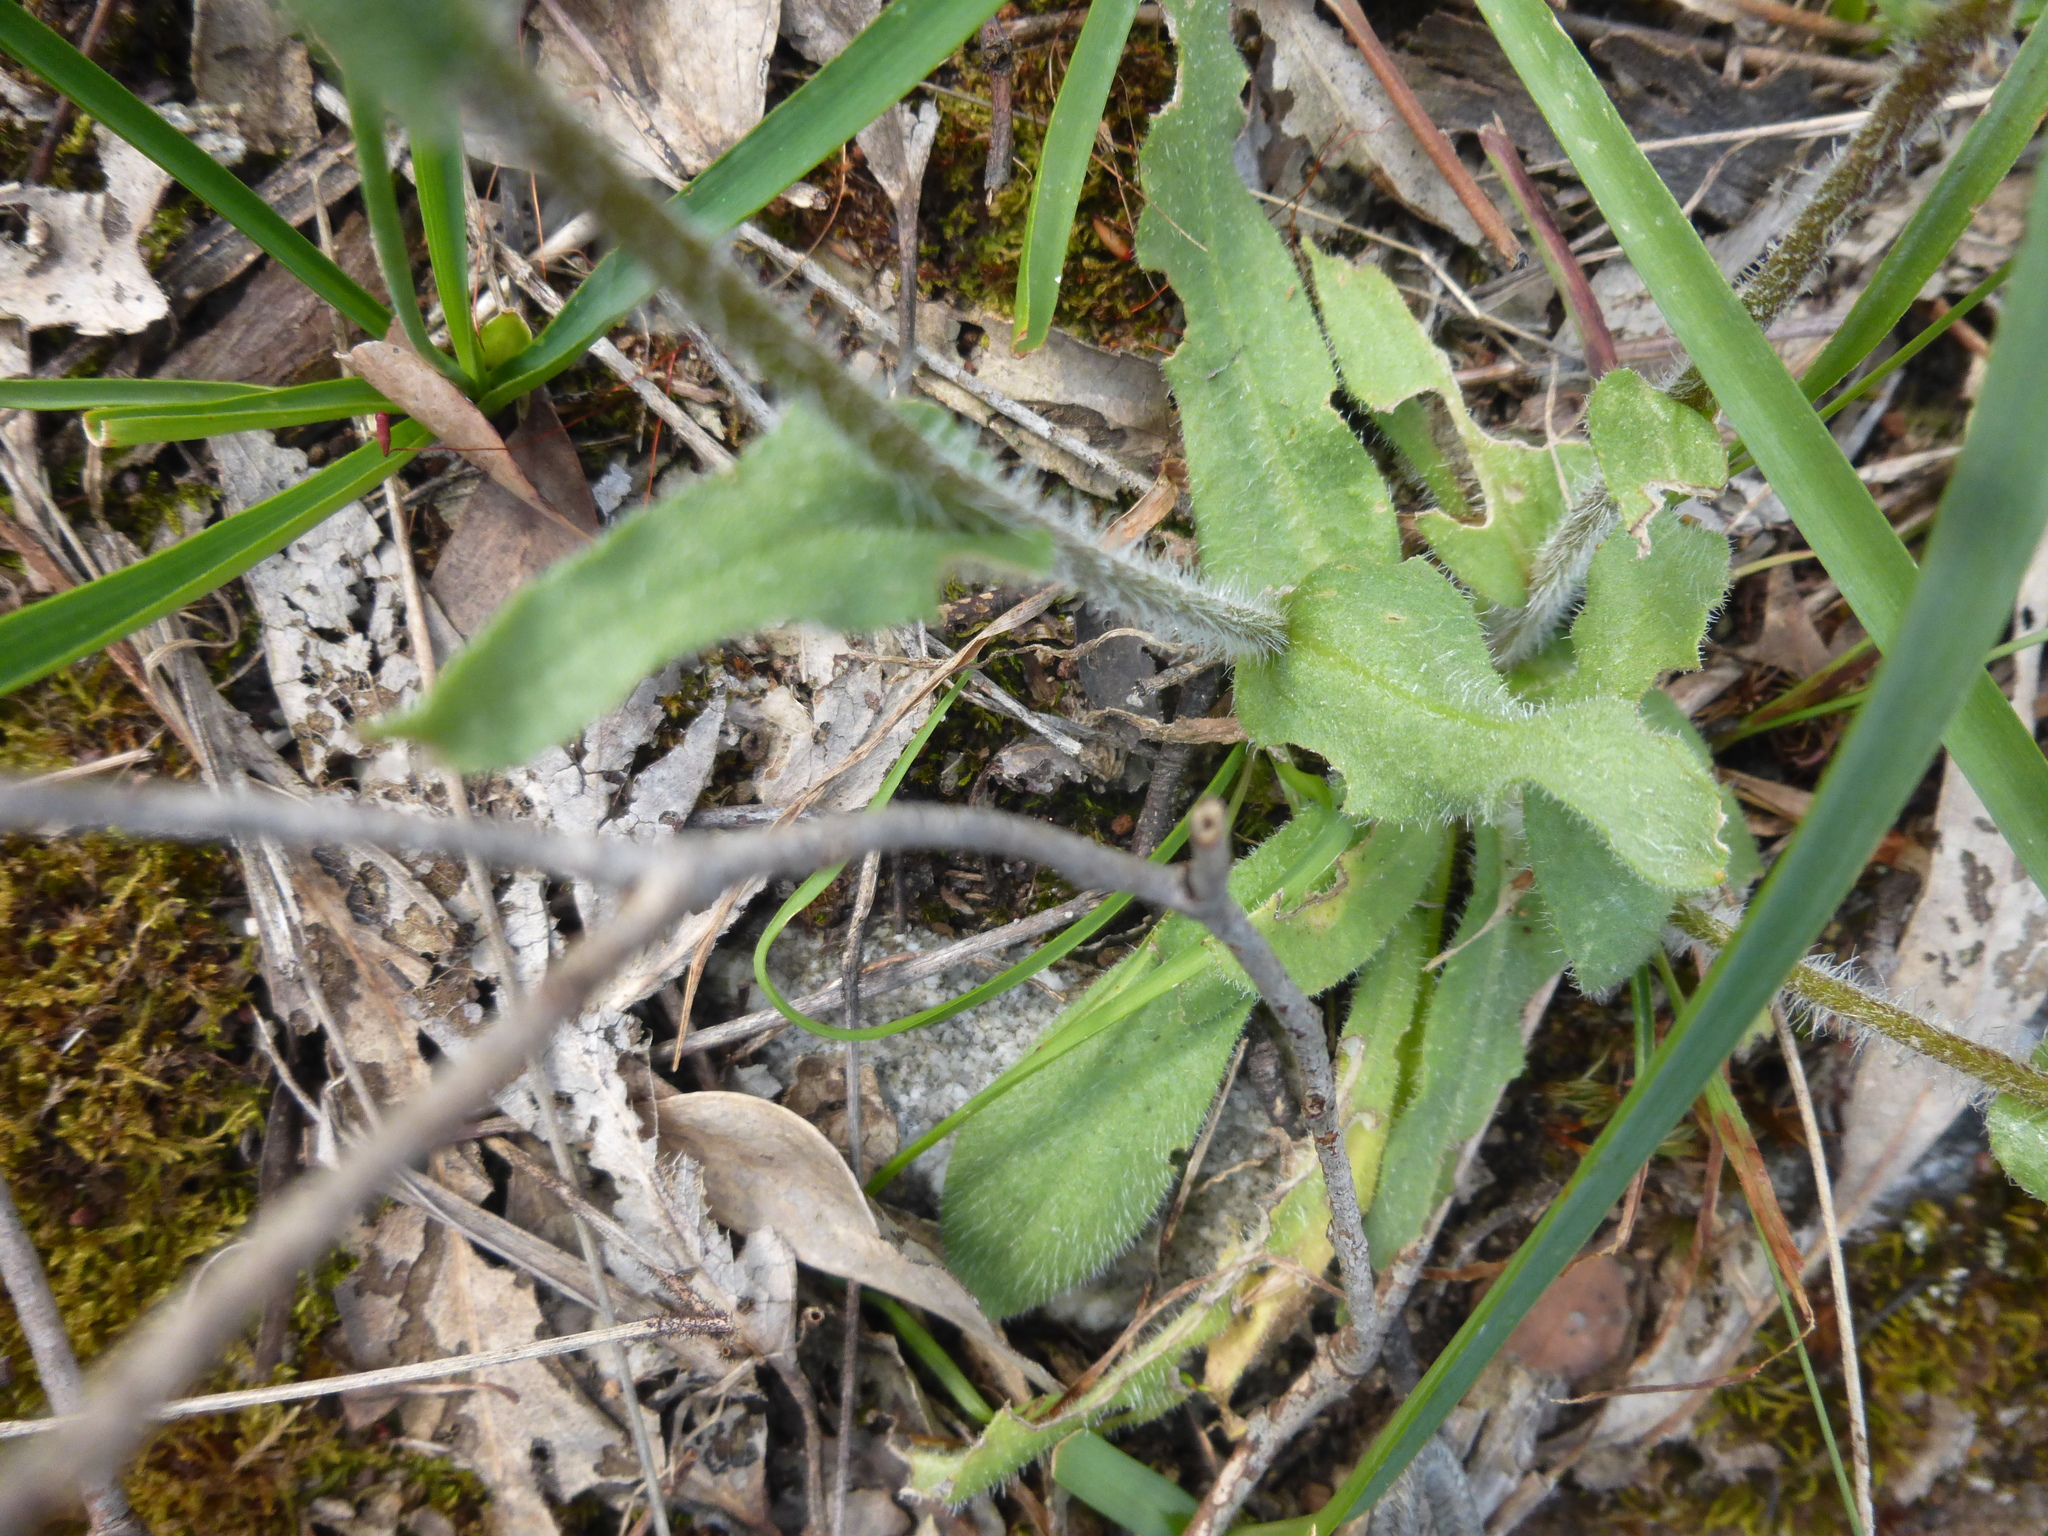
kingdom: Plantae
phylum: Tracheophyta
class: Magnoliopsida
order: Asterales
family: Asteraceae
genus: Craspedia
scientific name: Craspedia variabilis
